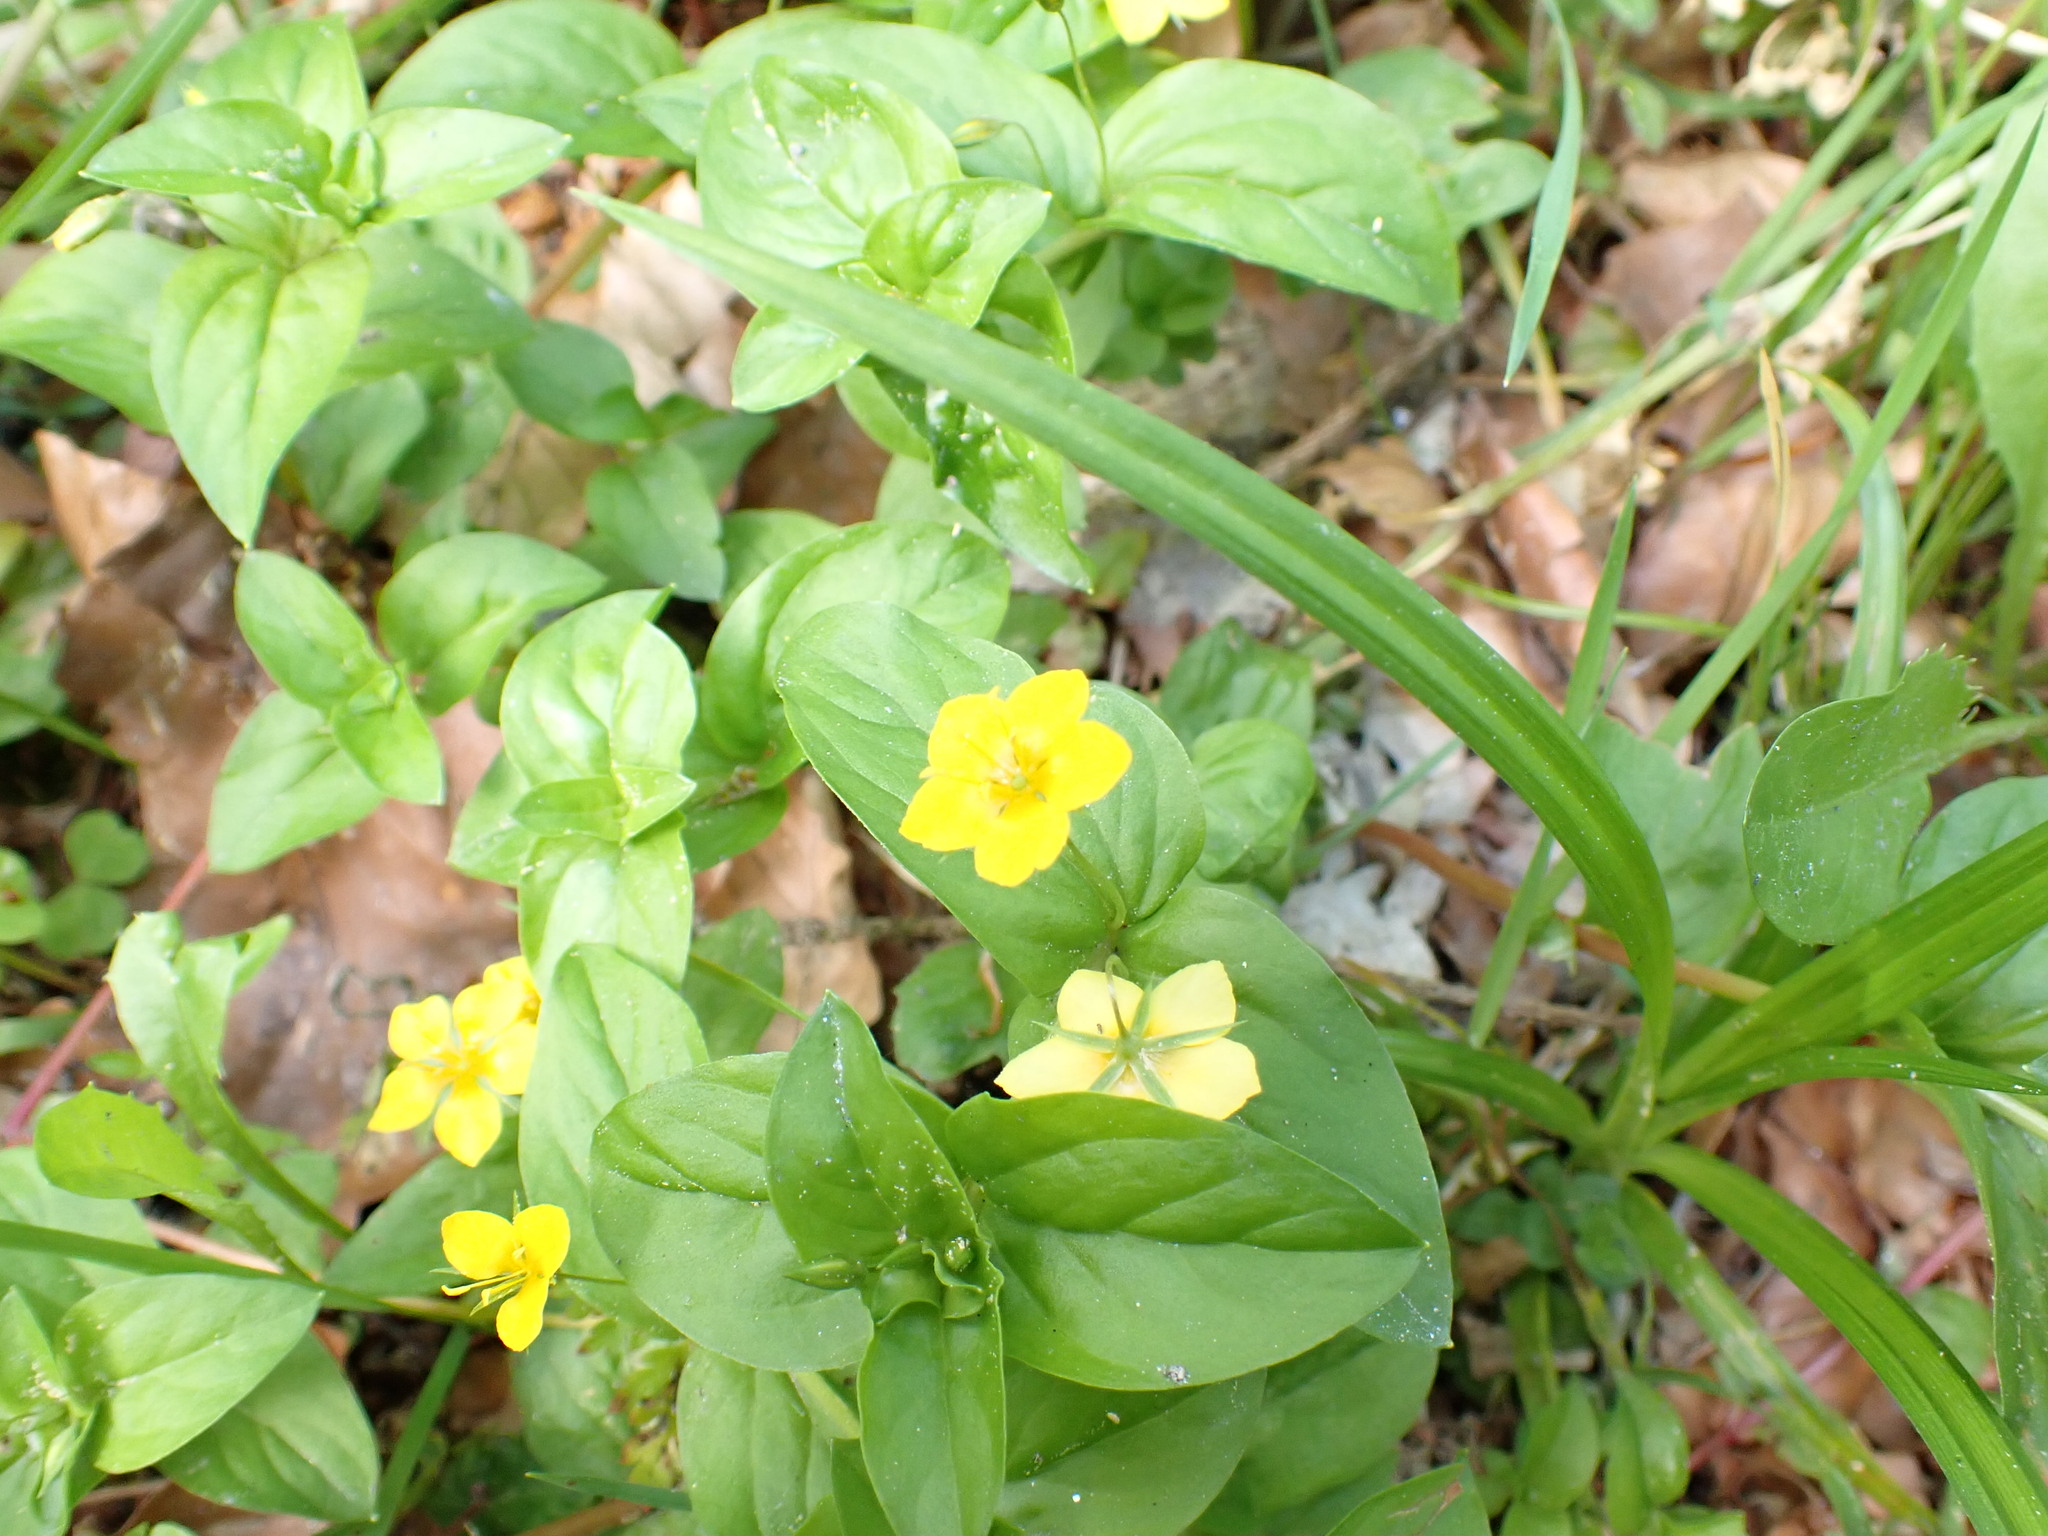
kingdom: Plantae
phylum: Tracheophyta
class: Magnoliopsida
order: Ericales
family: Primulaceae
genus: Lysimachia
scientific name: Lysimachia nemorum
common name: Yellow pimpernel
